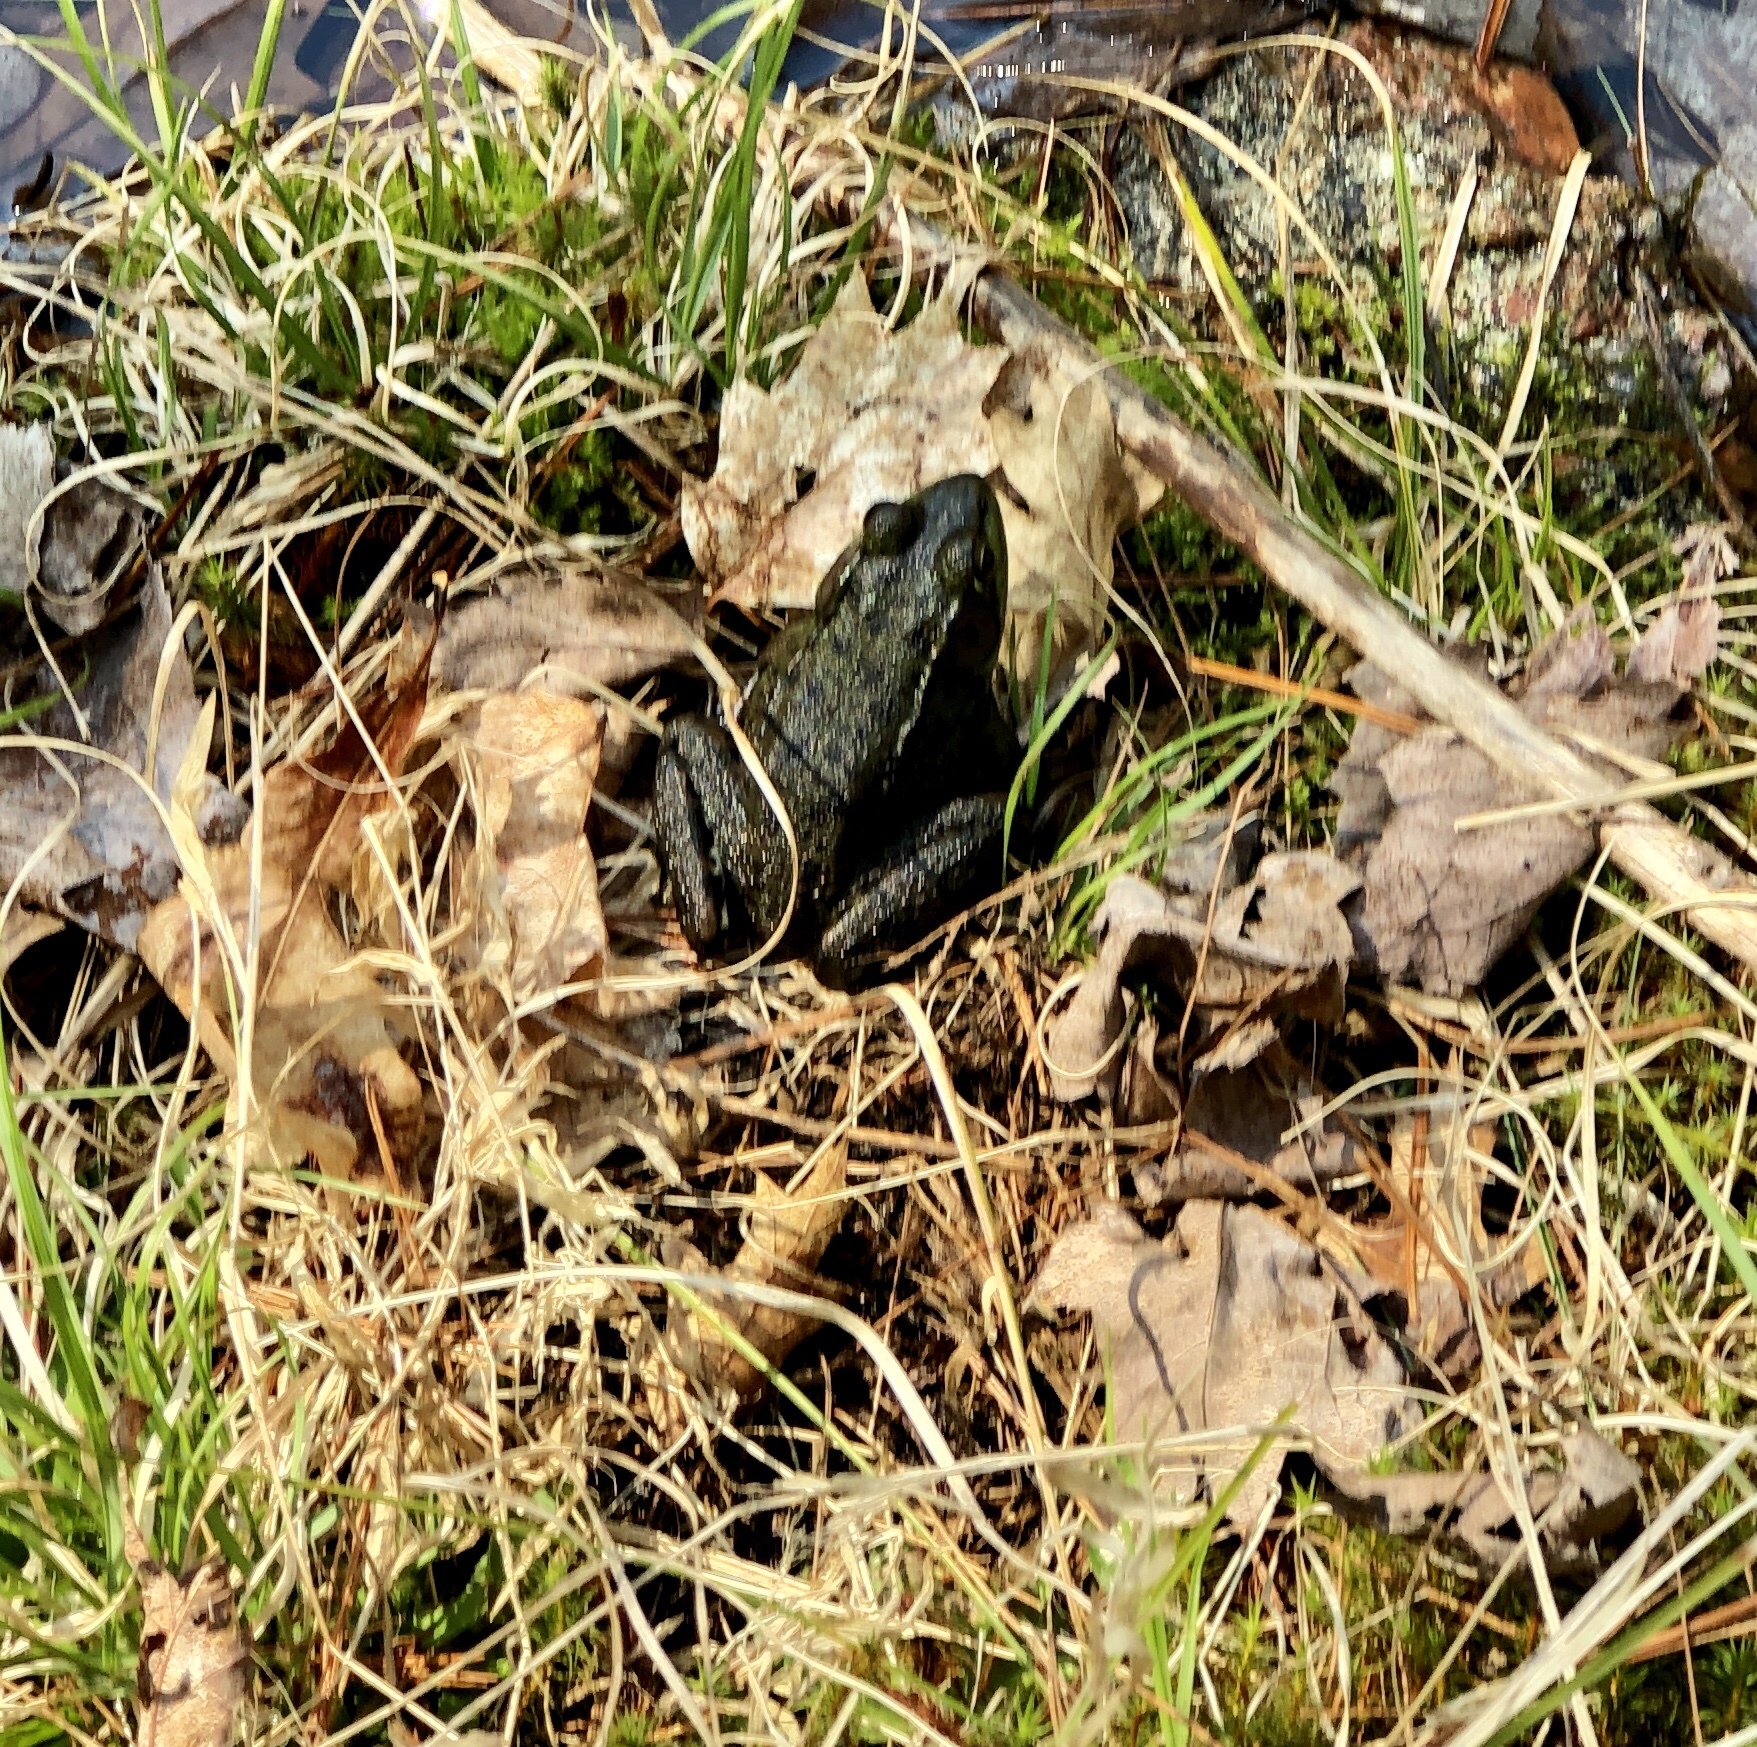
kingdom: Animalia
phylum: Chordata
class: Amphibia
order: Anura
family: Ranidae
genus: Lithobates
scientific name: Lithobates clamitans
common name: Green frog
